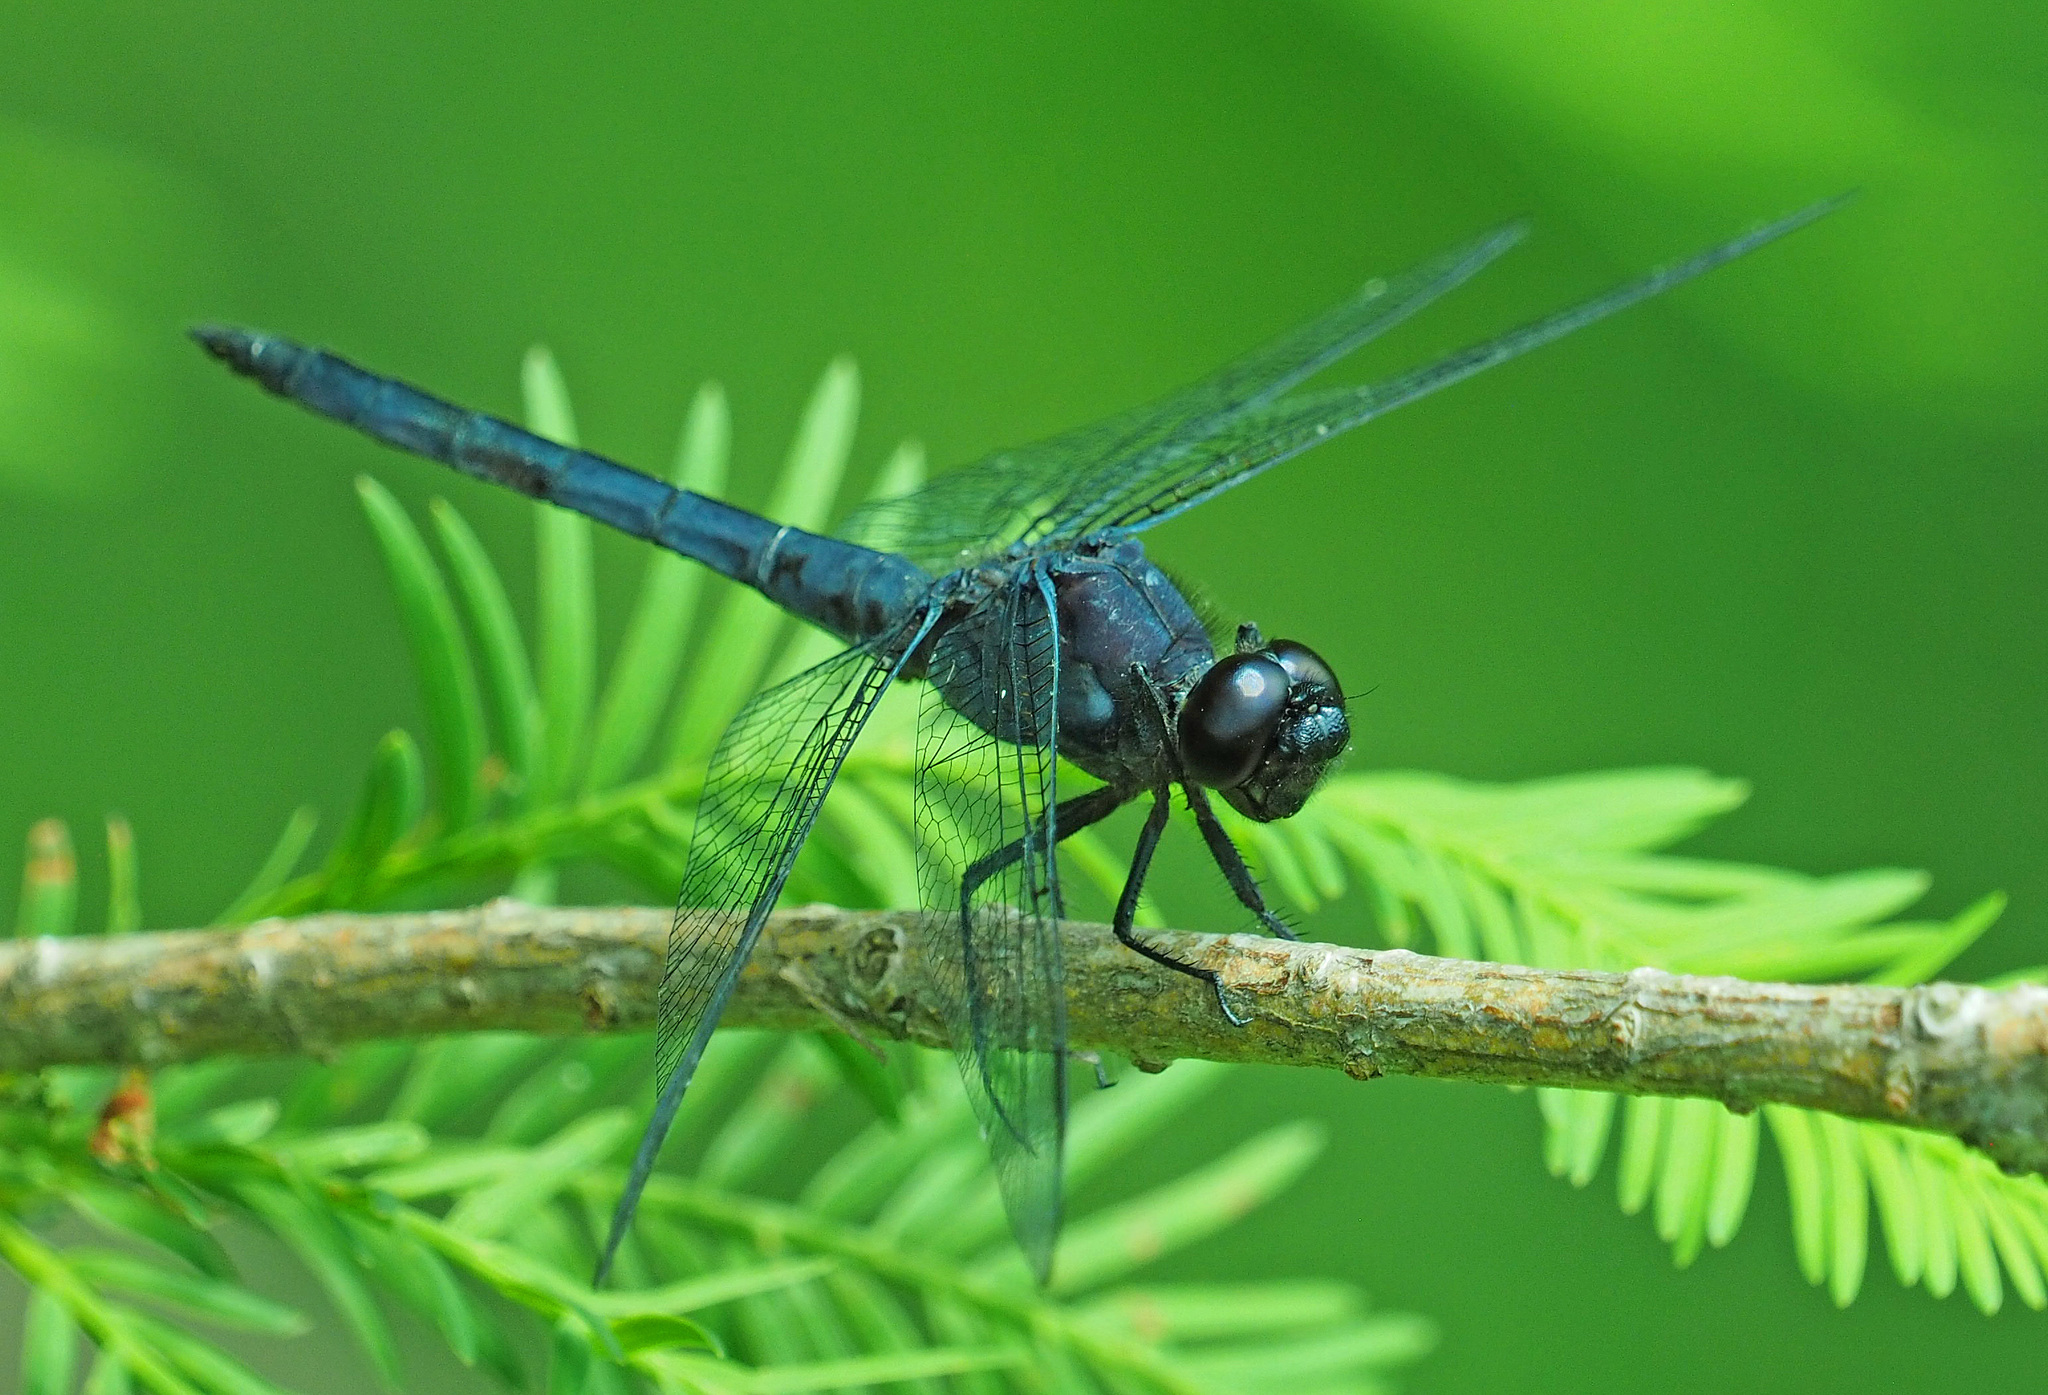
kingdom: Animalia
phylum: Arthropoda
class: Insecta
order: Odonata
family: Libellulidae
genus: Libellula
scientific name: Libellula incesta
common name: Slaty skimmer
